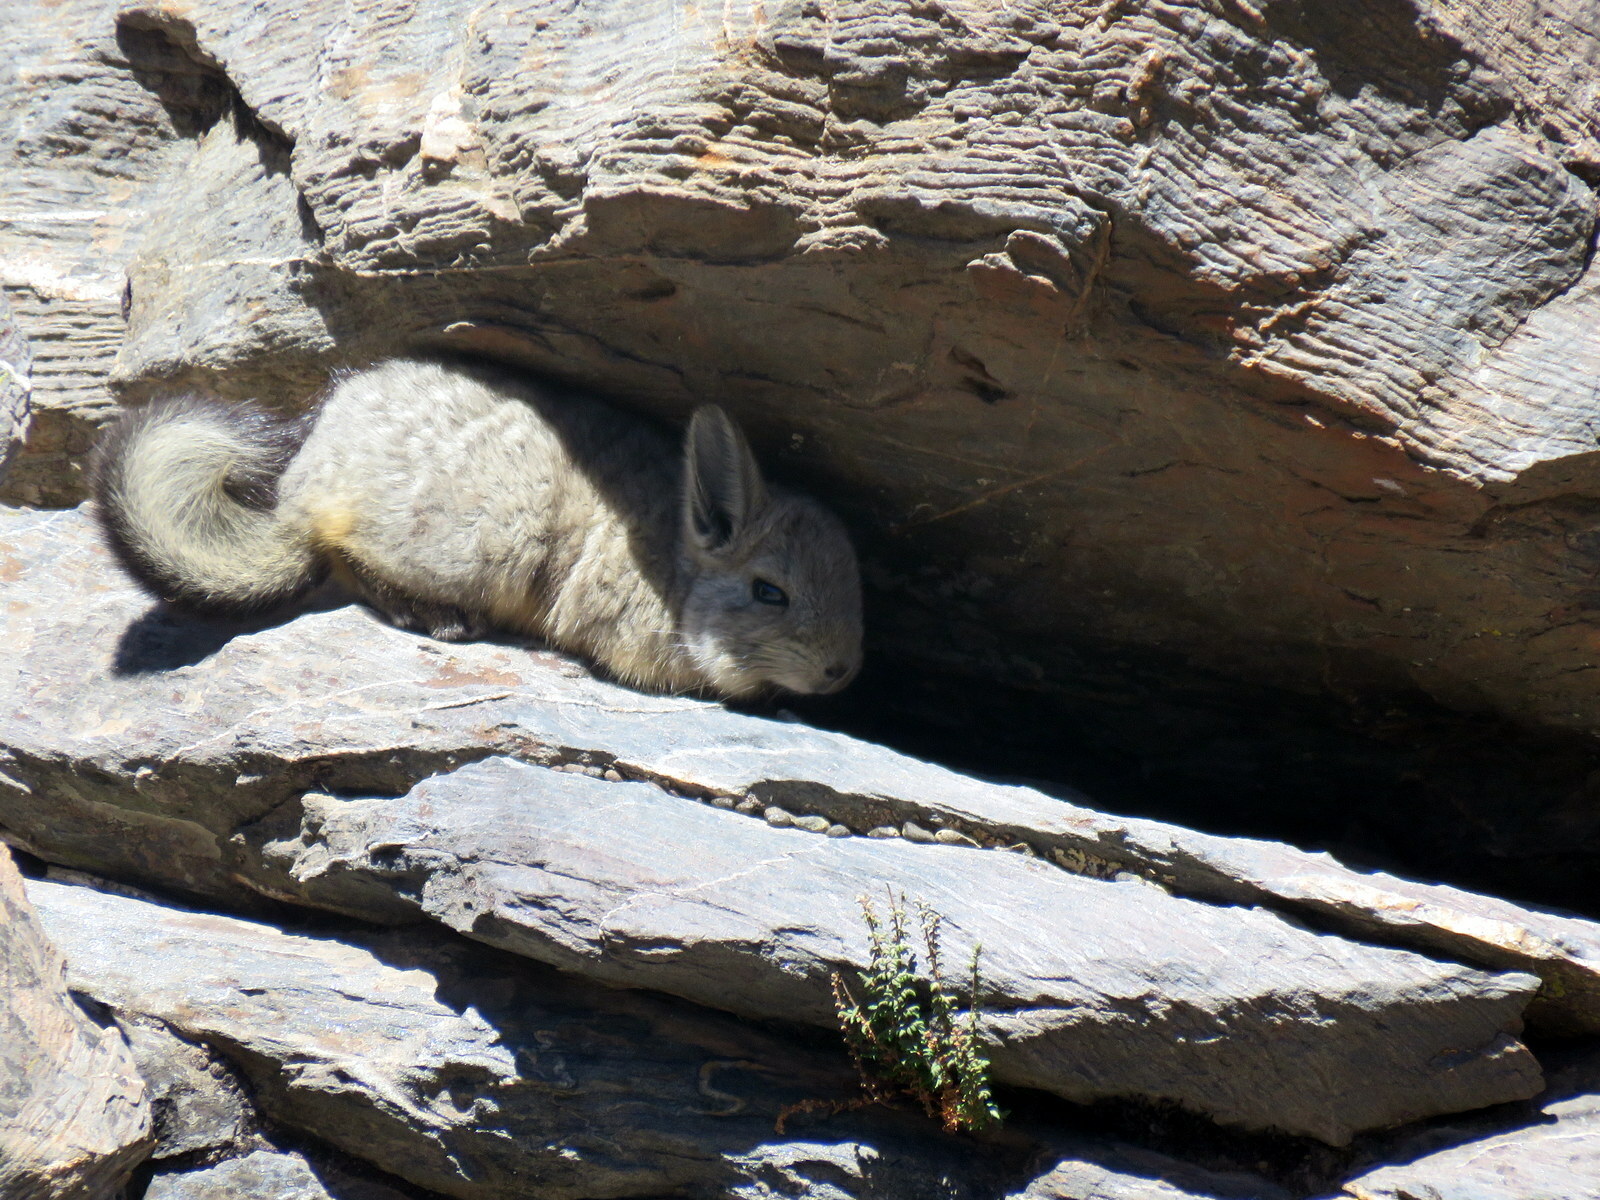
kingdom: Animalia
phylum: Chordata
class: Mammalia
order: Rodentia
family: Chinchillidae
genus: Lagidium
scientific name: Lagidium viscacia
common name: Southern viscacha
